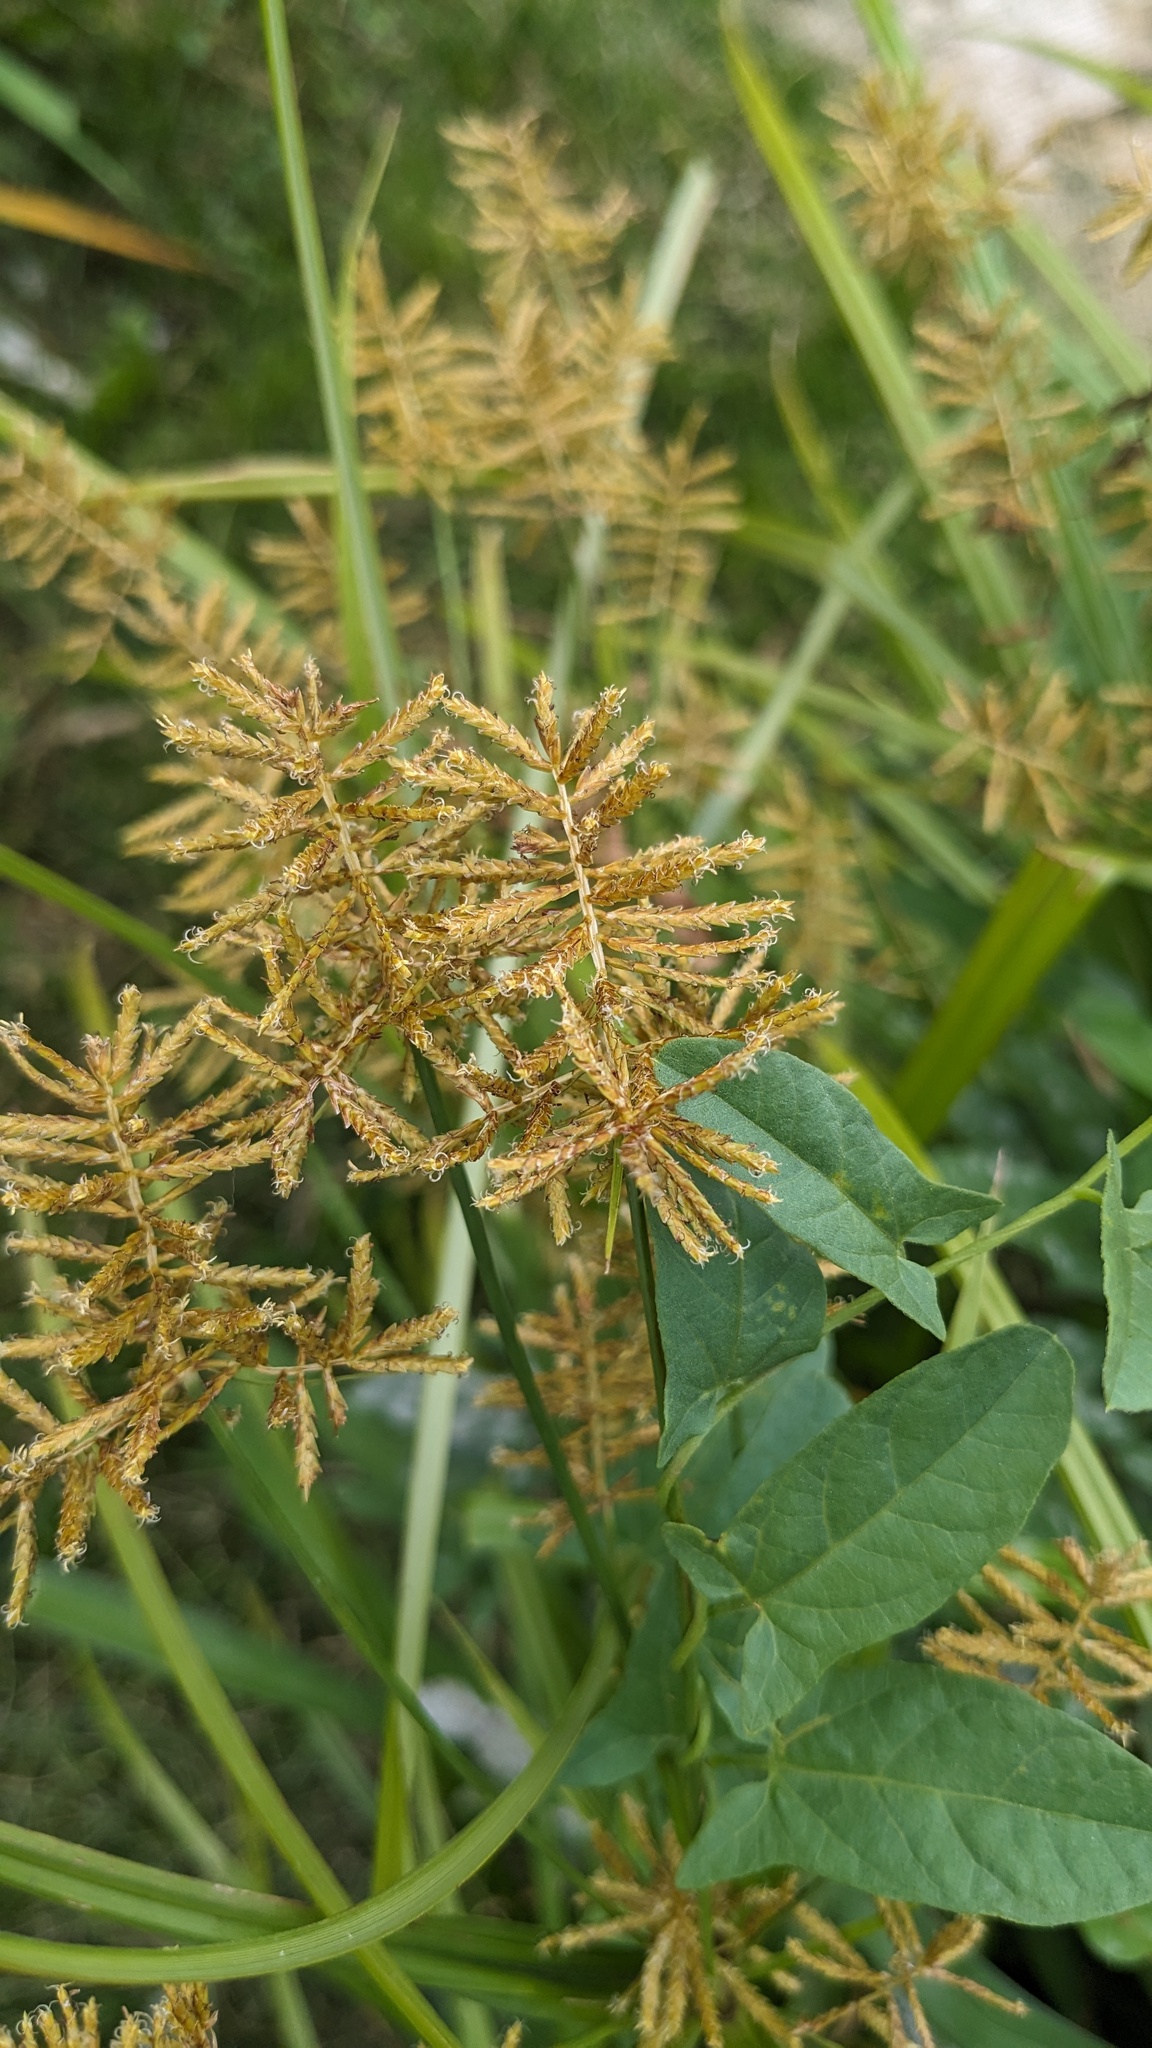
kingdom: Plantae
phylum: Tracheophyta
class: Liliopsida
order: Poales
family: Cyperaceae
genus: Cyperus
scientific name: Cyperus esculentus
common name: Yellow nutsedge
